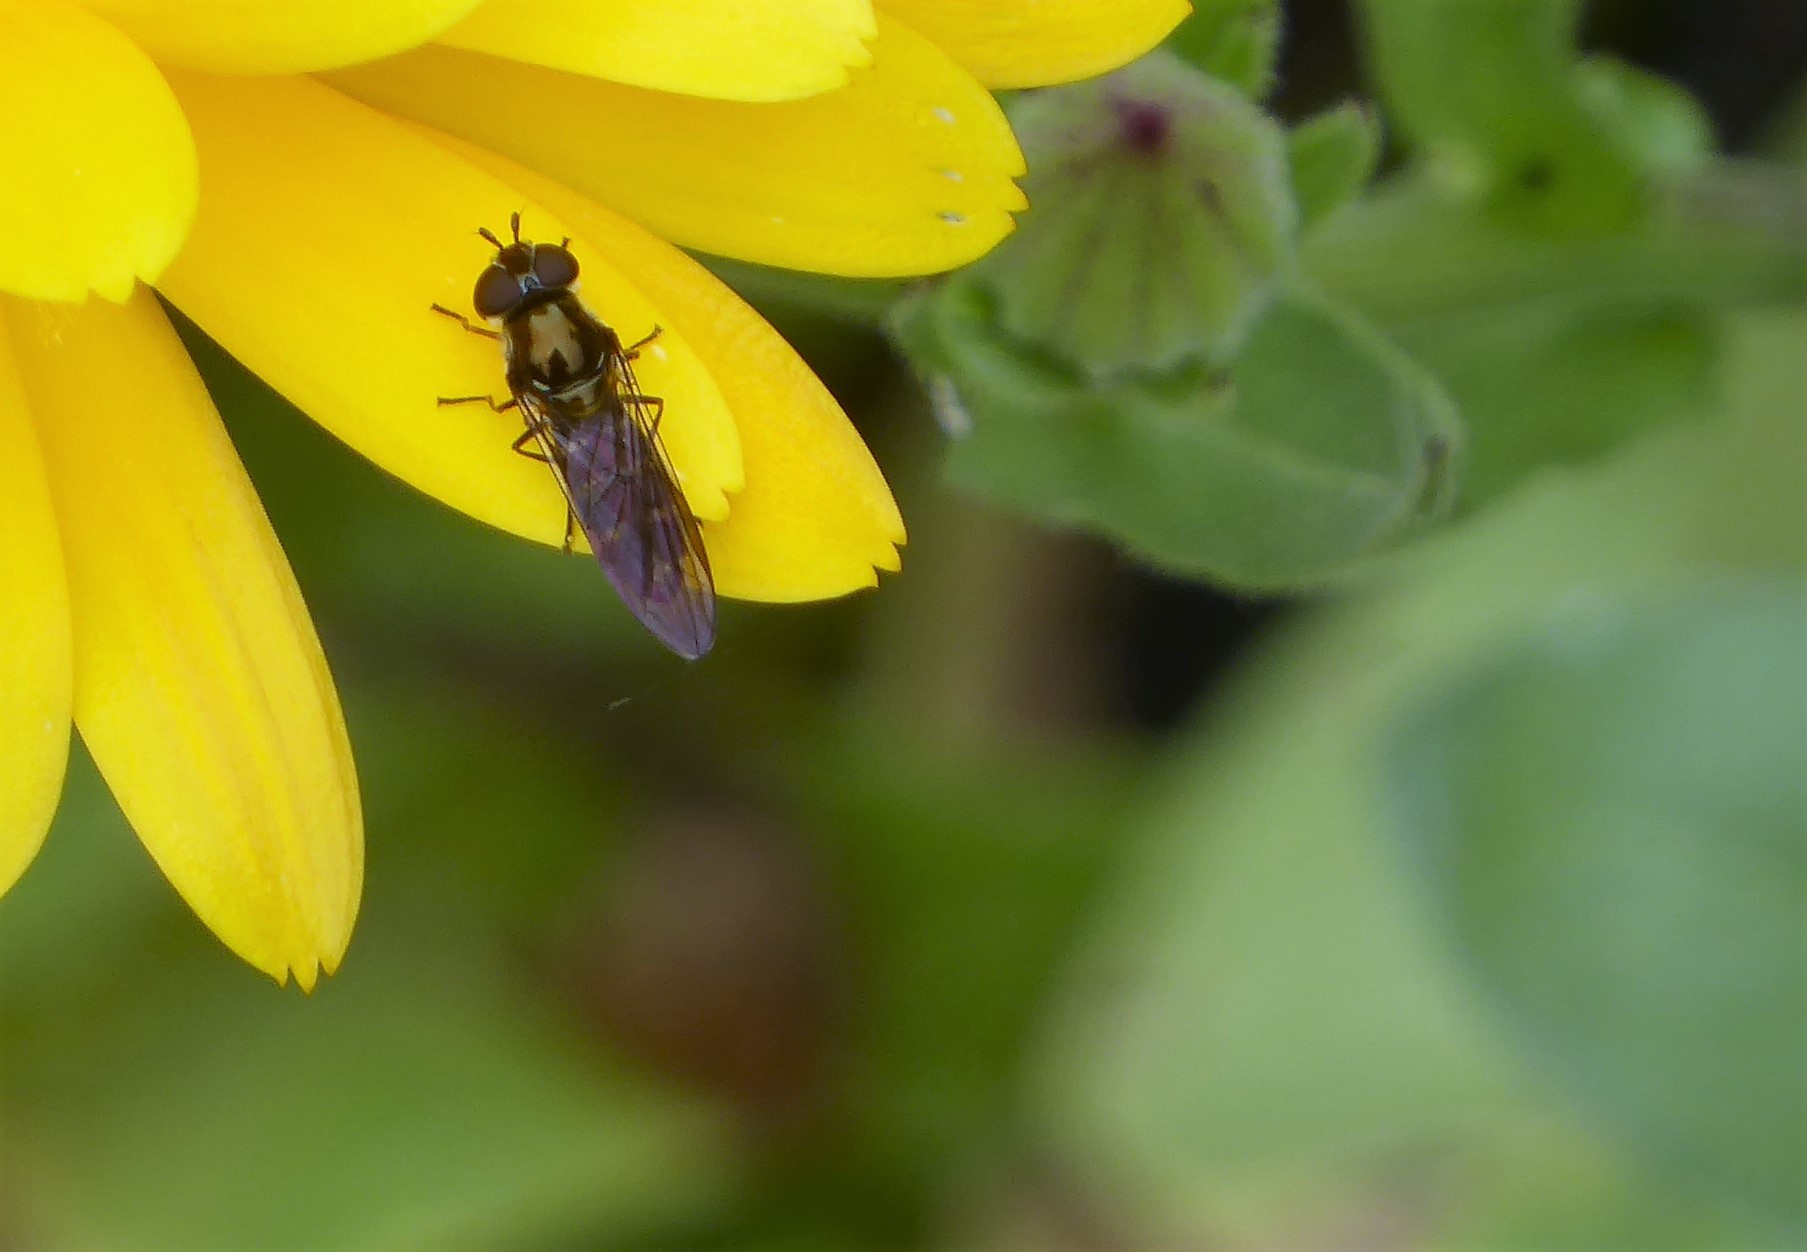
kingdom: Animalia
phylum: Arthropoda
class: Insecta
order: Diptera
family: Syrphidae
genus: Melangyna
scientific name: Melangyna novaezelandiae
